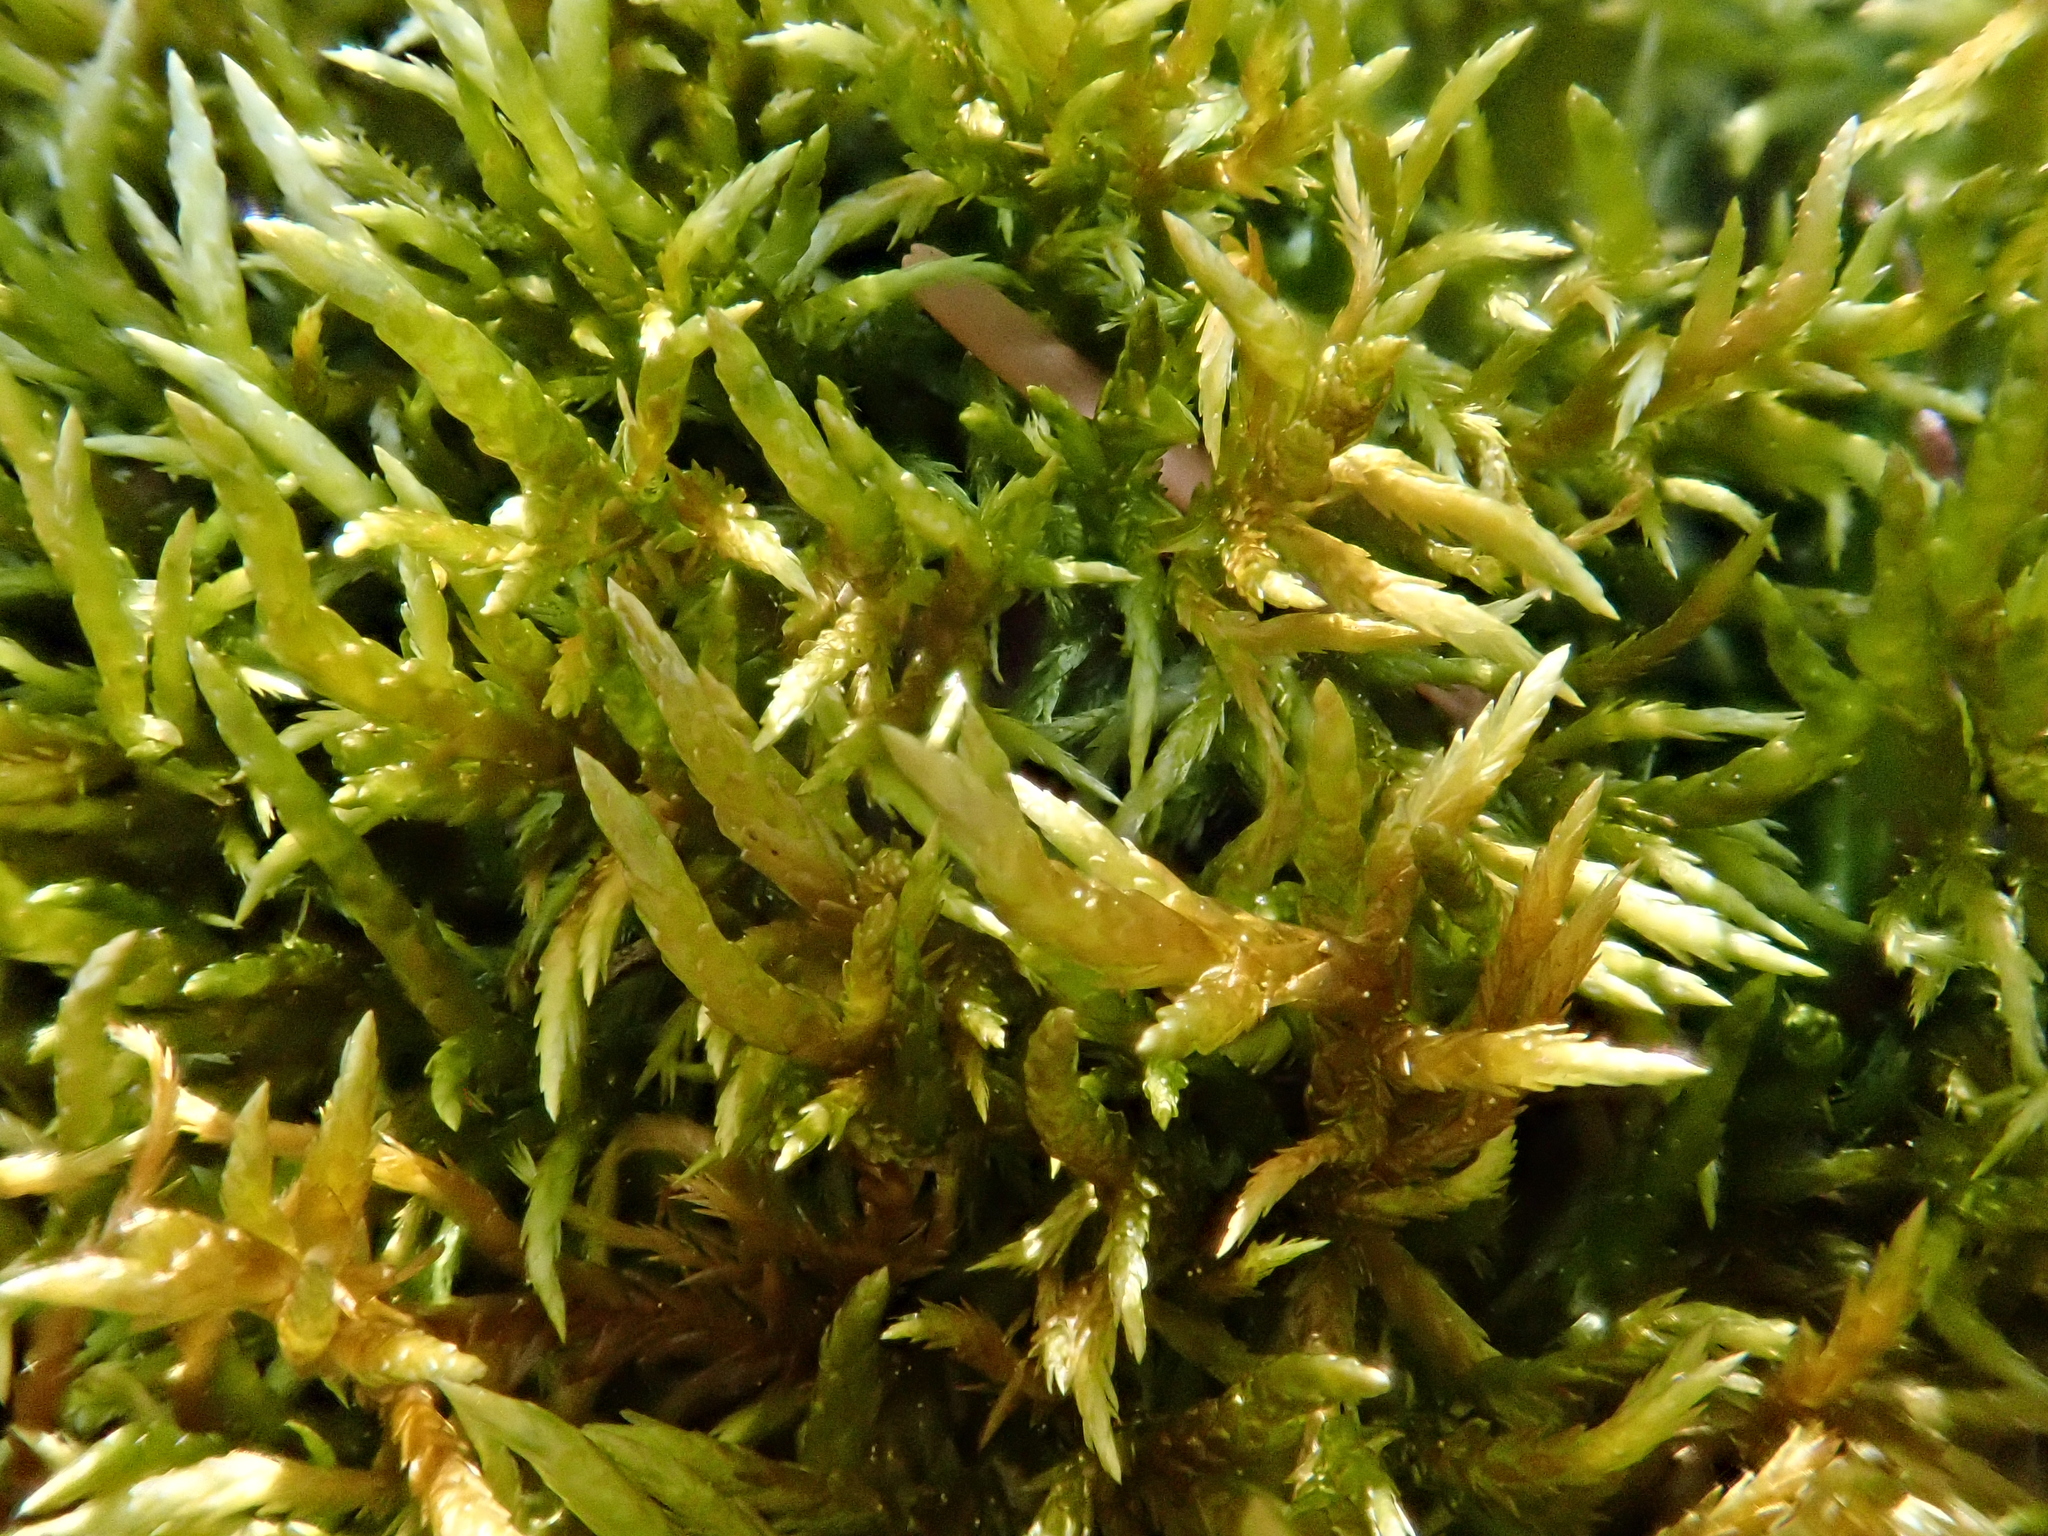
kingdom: Plantae
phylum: Bryophyta
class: Bryopsida
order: Hypnales
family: Entodontaceae
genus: Entodon
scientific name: Entodon concinnus
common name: Montagne's cylinder-moss
